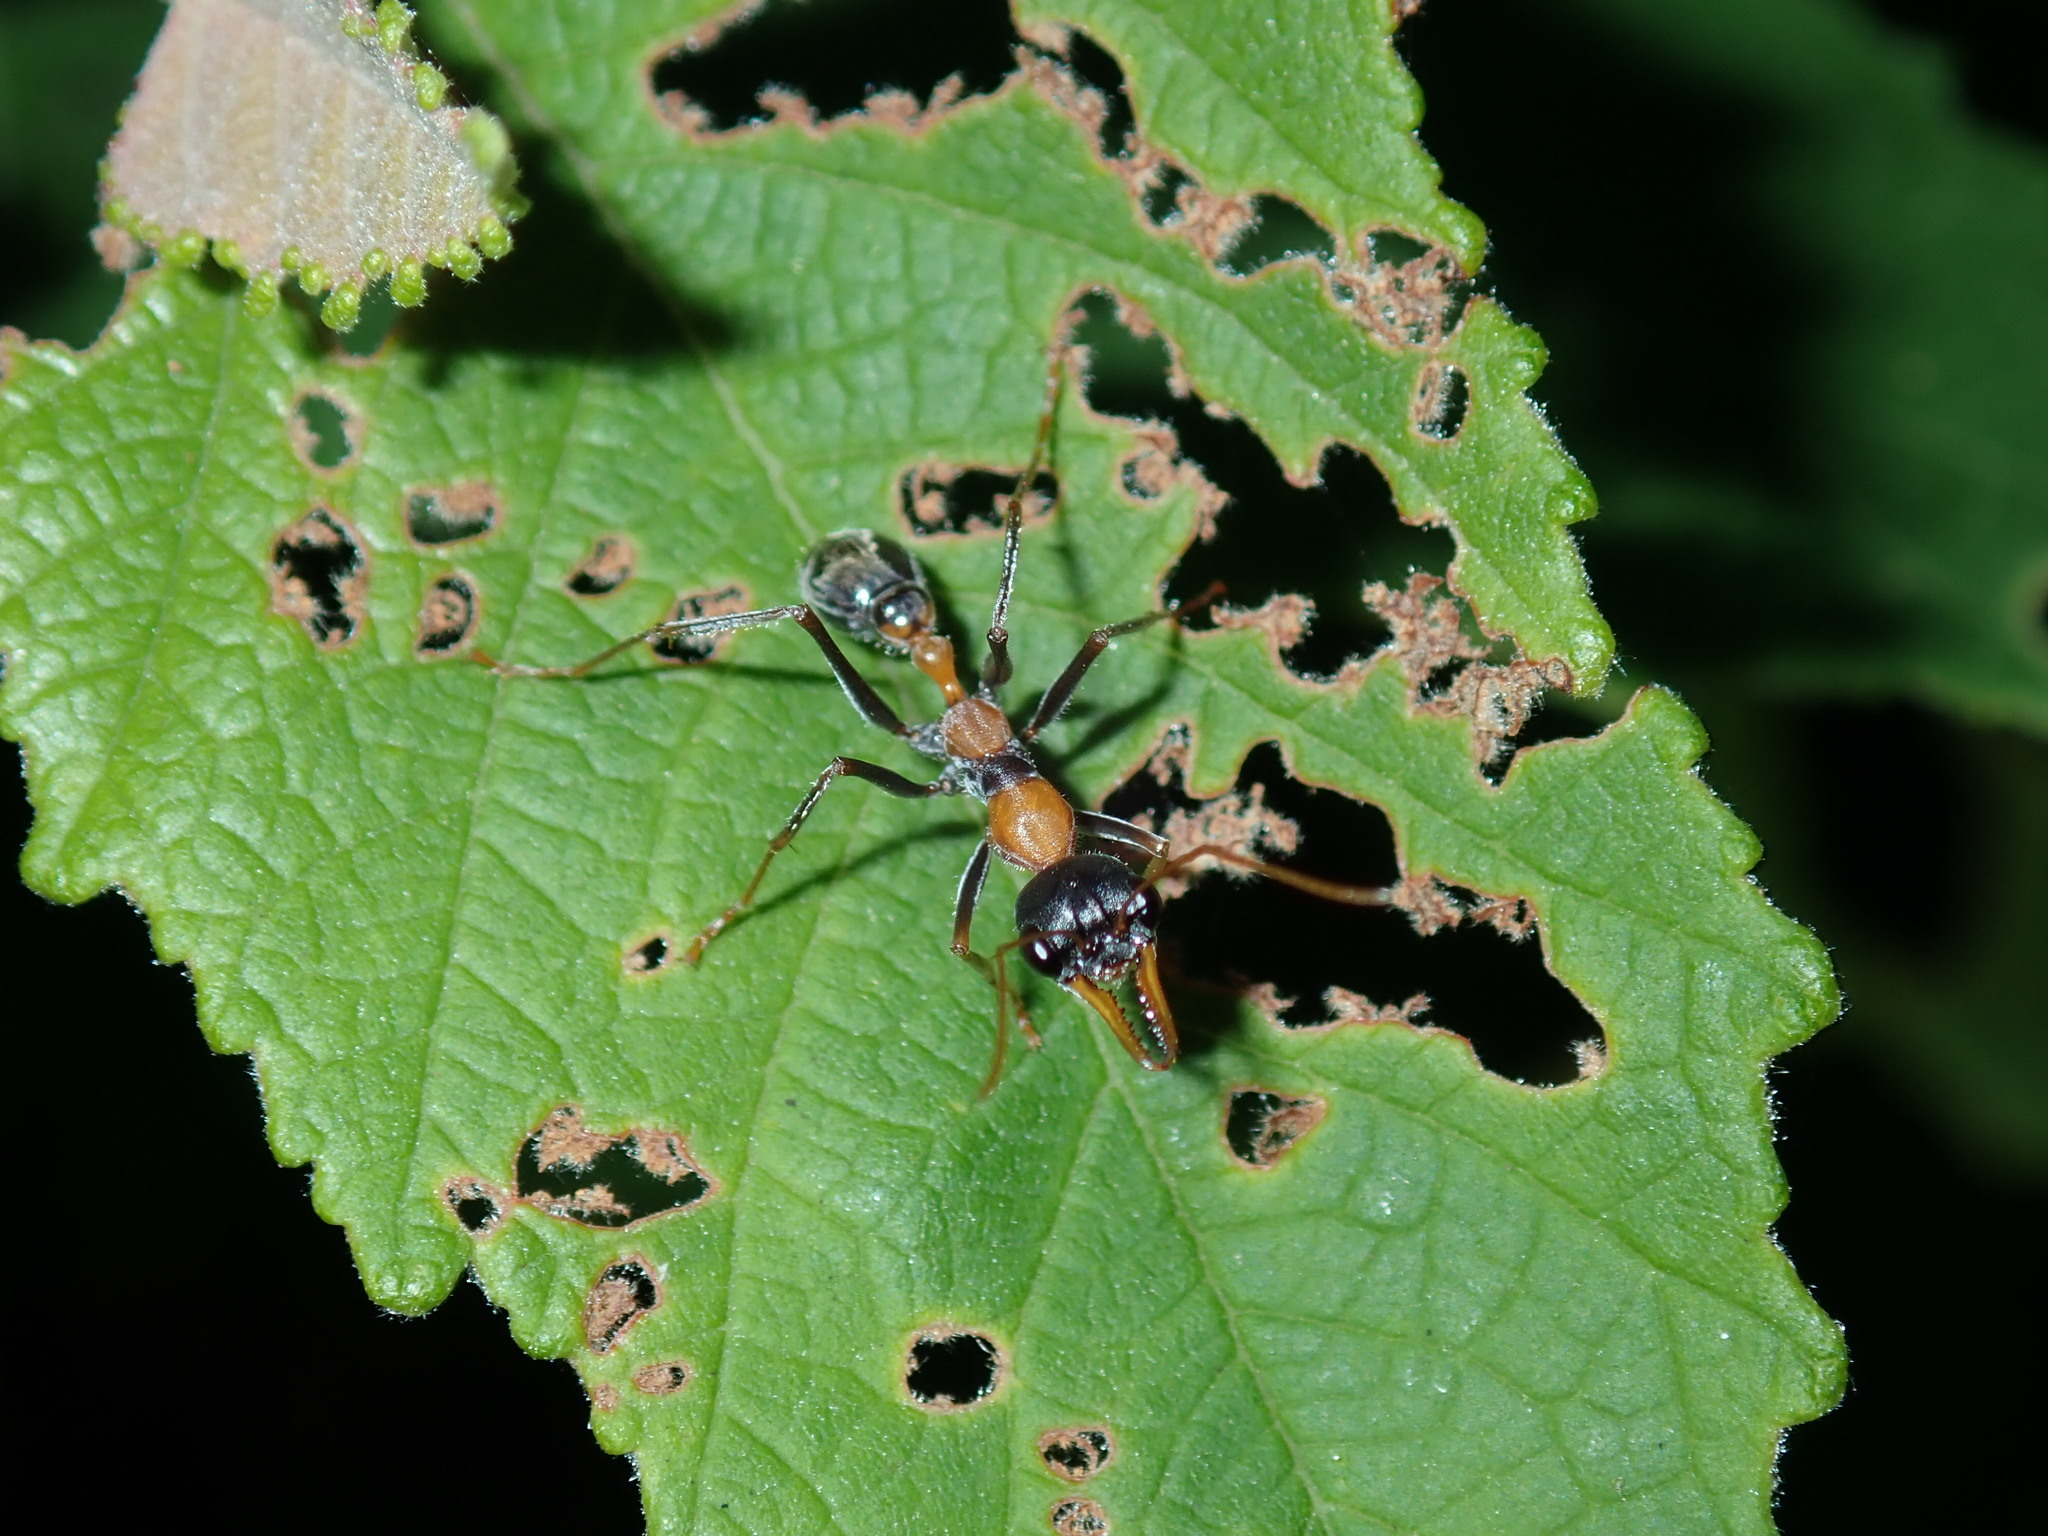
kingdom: Animalia
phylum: Arthropoda
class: Insecta
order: Hymenoptera
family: Formicidae
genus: Myrmecia
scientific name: Myrmecia nigrocincta
